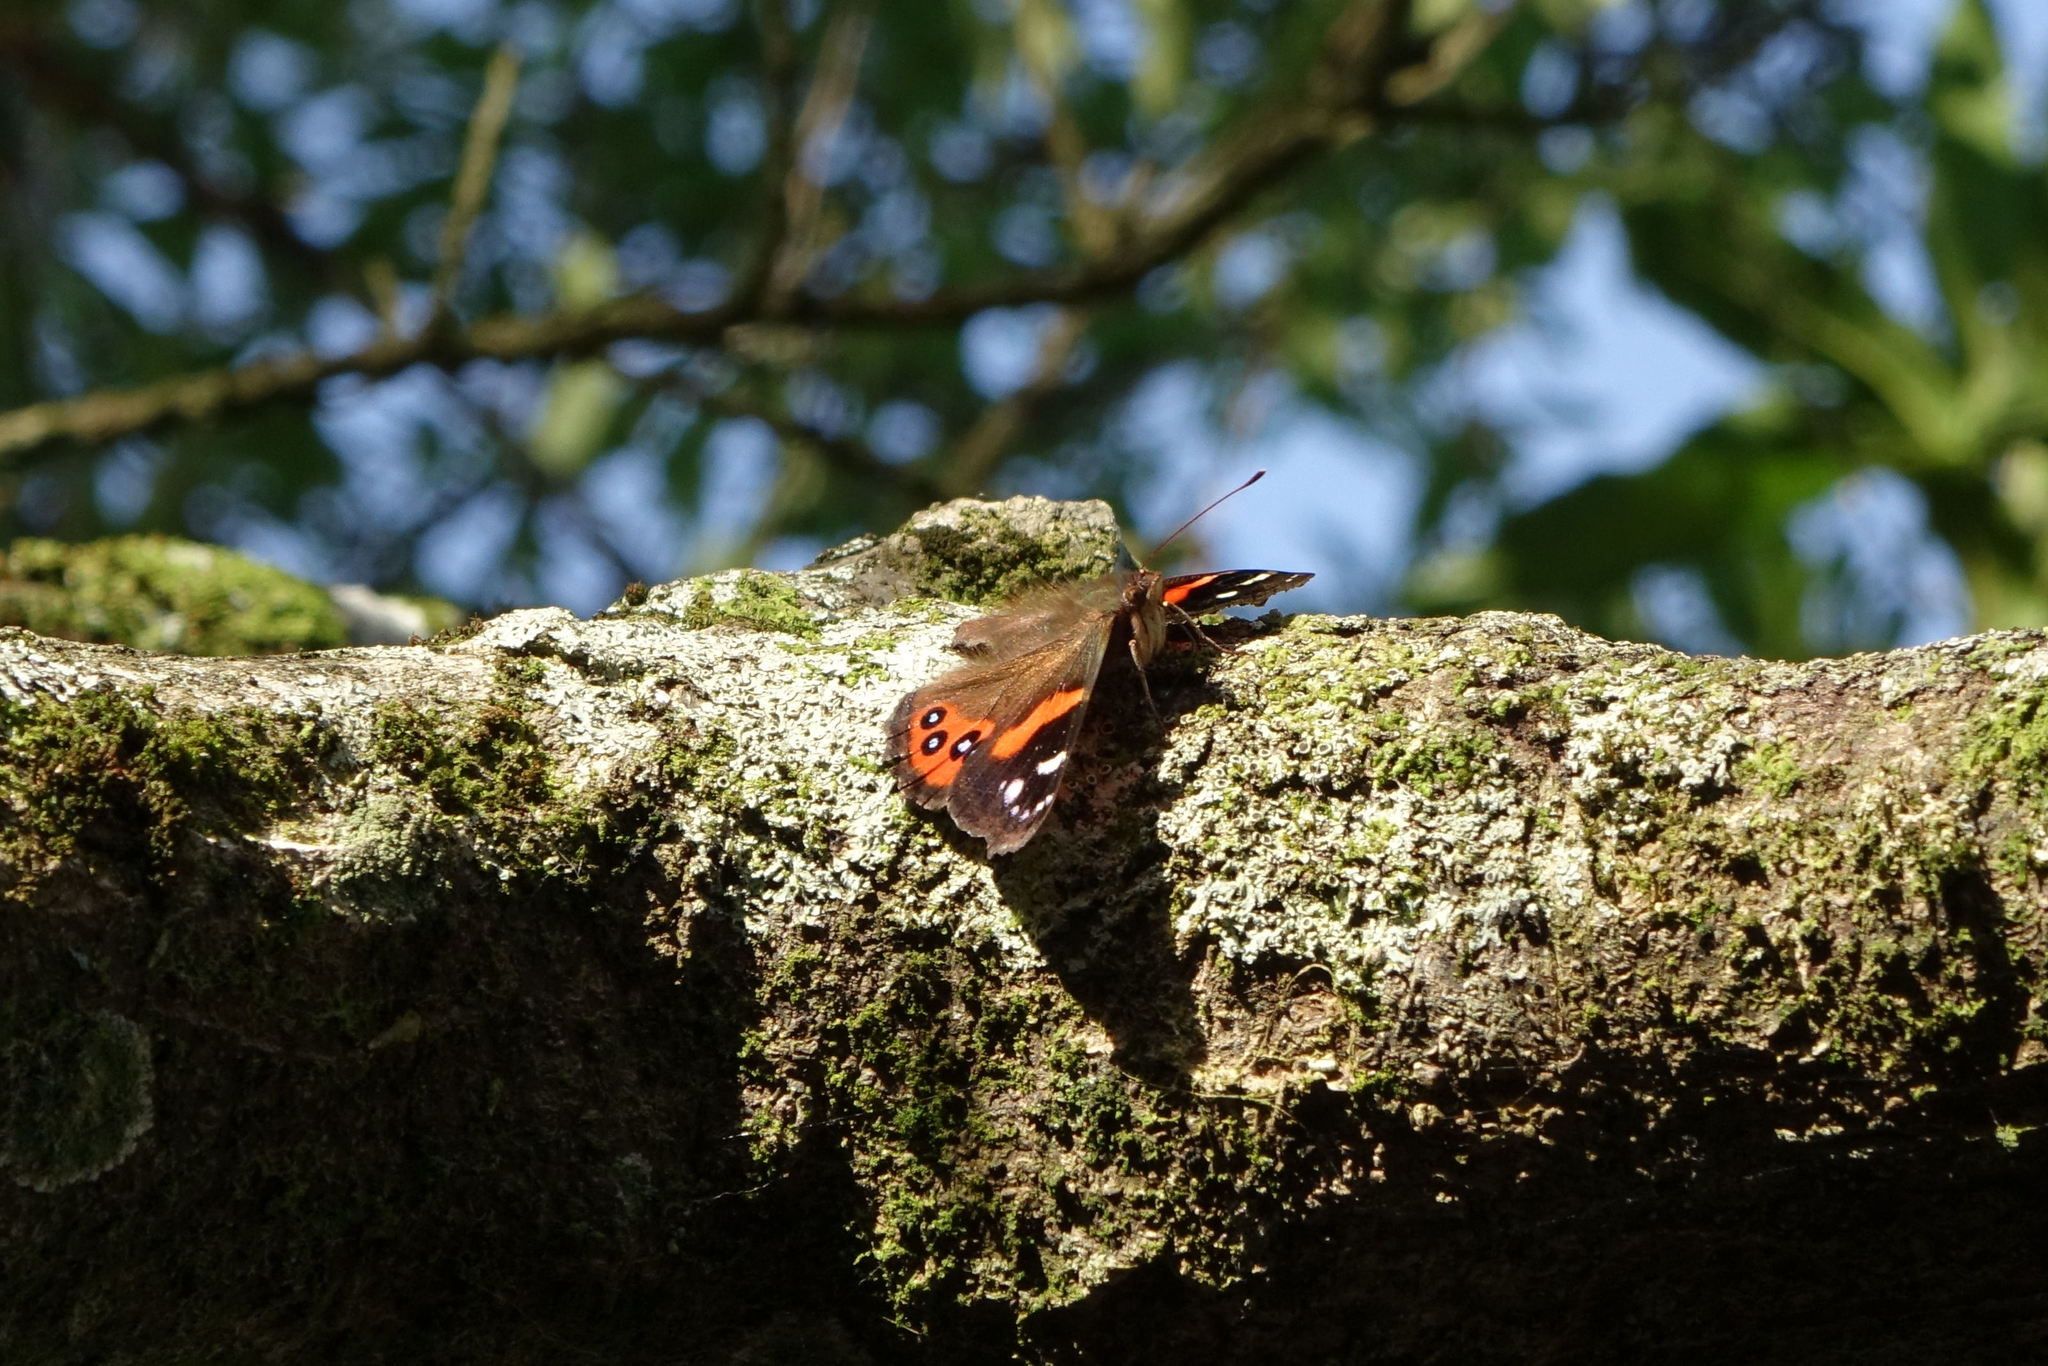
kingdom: Animalia
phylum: Arthropoda
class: Insecta
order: Lepidoptera
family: Nymphalidae
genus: Vanessa
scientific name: Vanessa gonerilla
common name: New zealand red admiral
